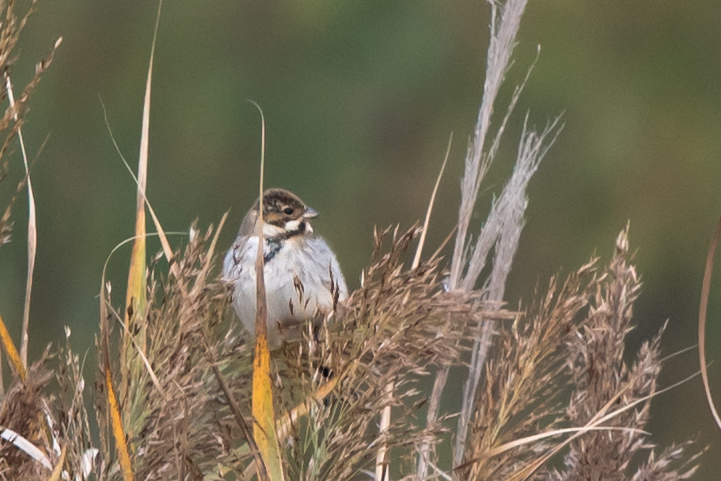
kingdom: Animalia
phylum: Chordata
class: Aves
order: Passeriformes
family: Emberizidae
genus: Emberiza
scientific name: Emberiza schoeniclus
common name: Reed bunting
